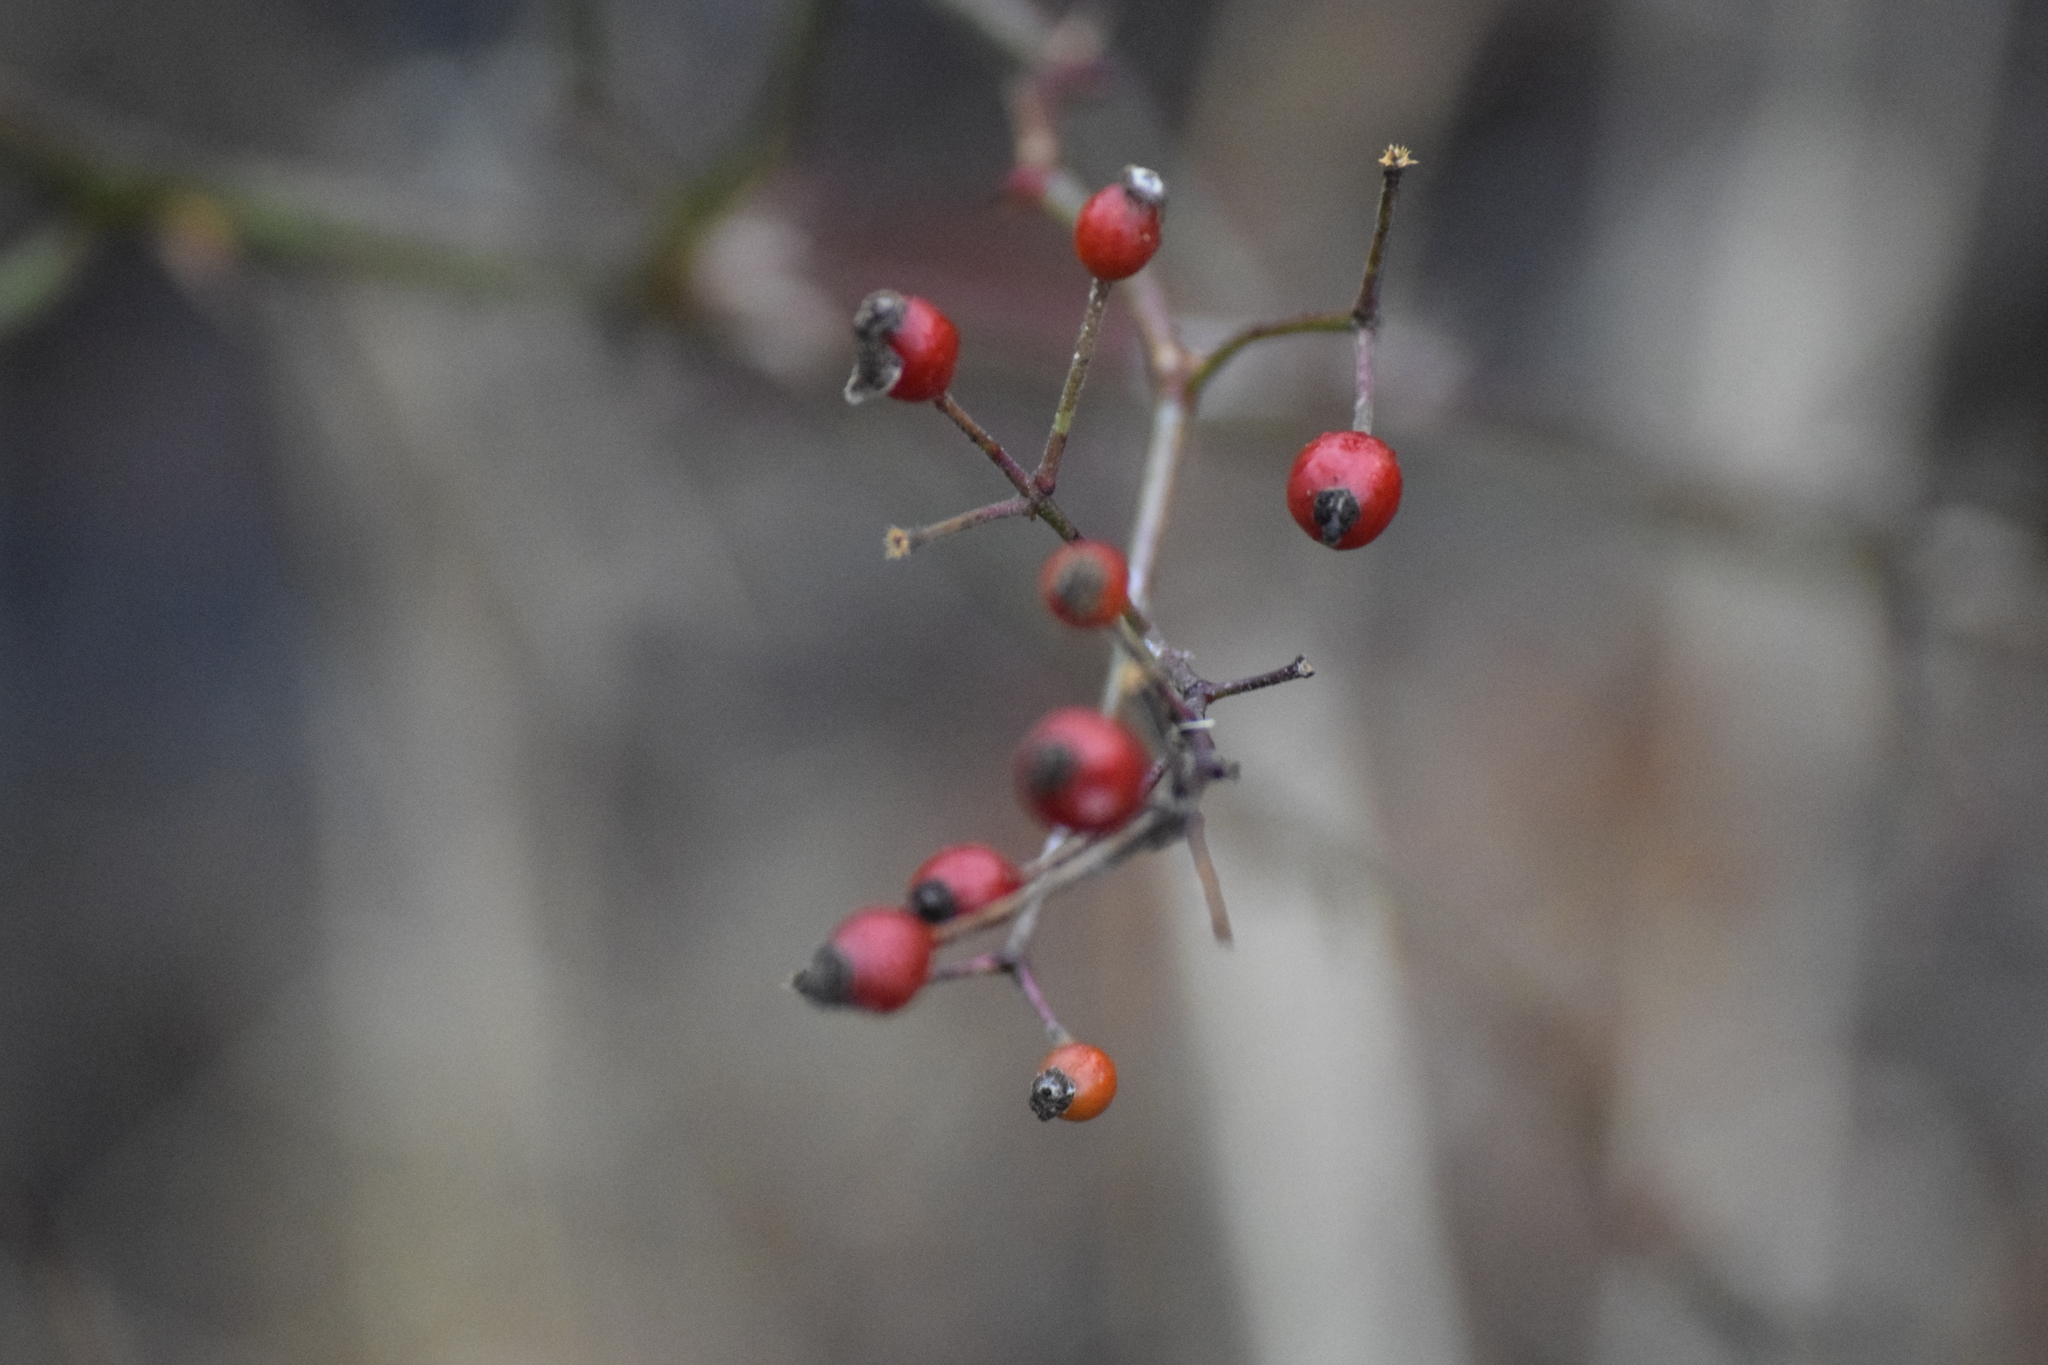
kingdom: Plantae
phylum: Tracheophyta
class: Magnoliopsida
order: Rosales
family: Rosaceae
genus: Rosa
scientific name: Rosa multiflora
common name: Multiflora rose
